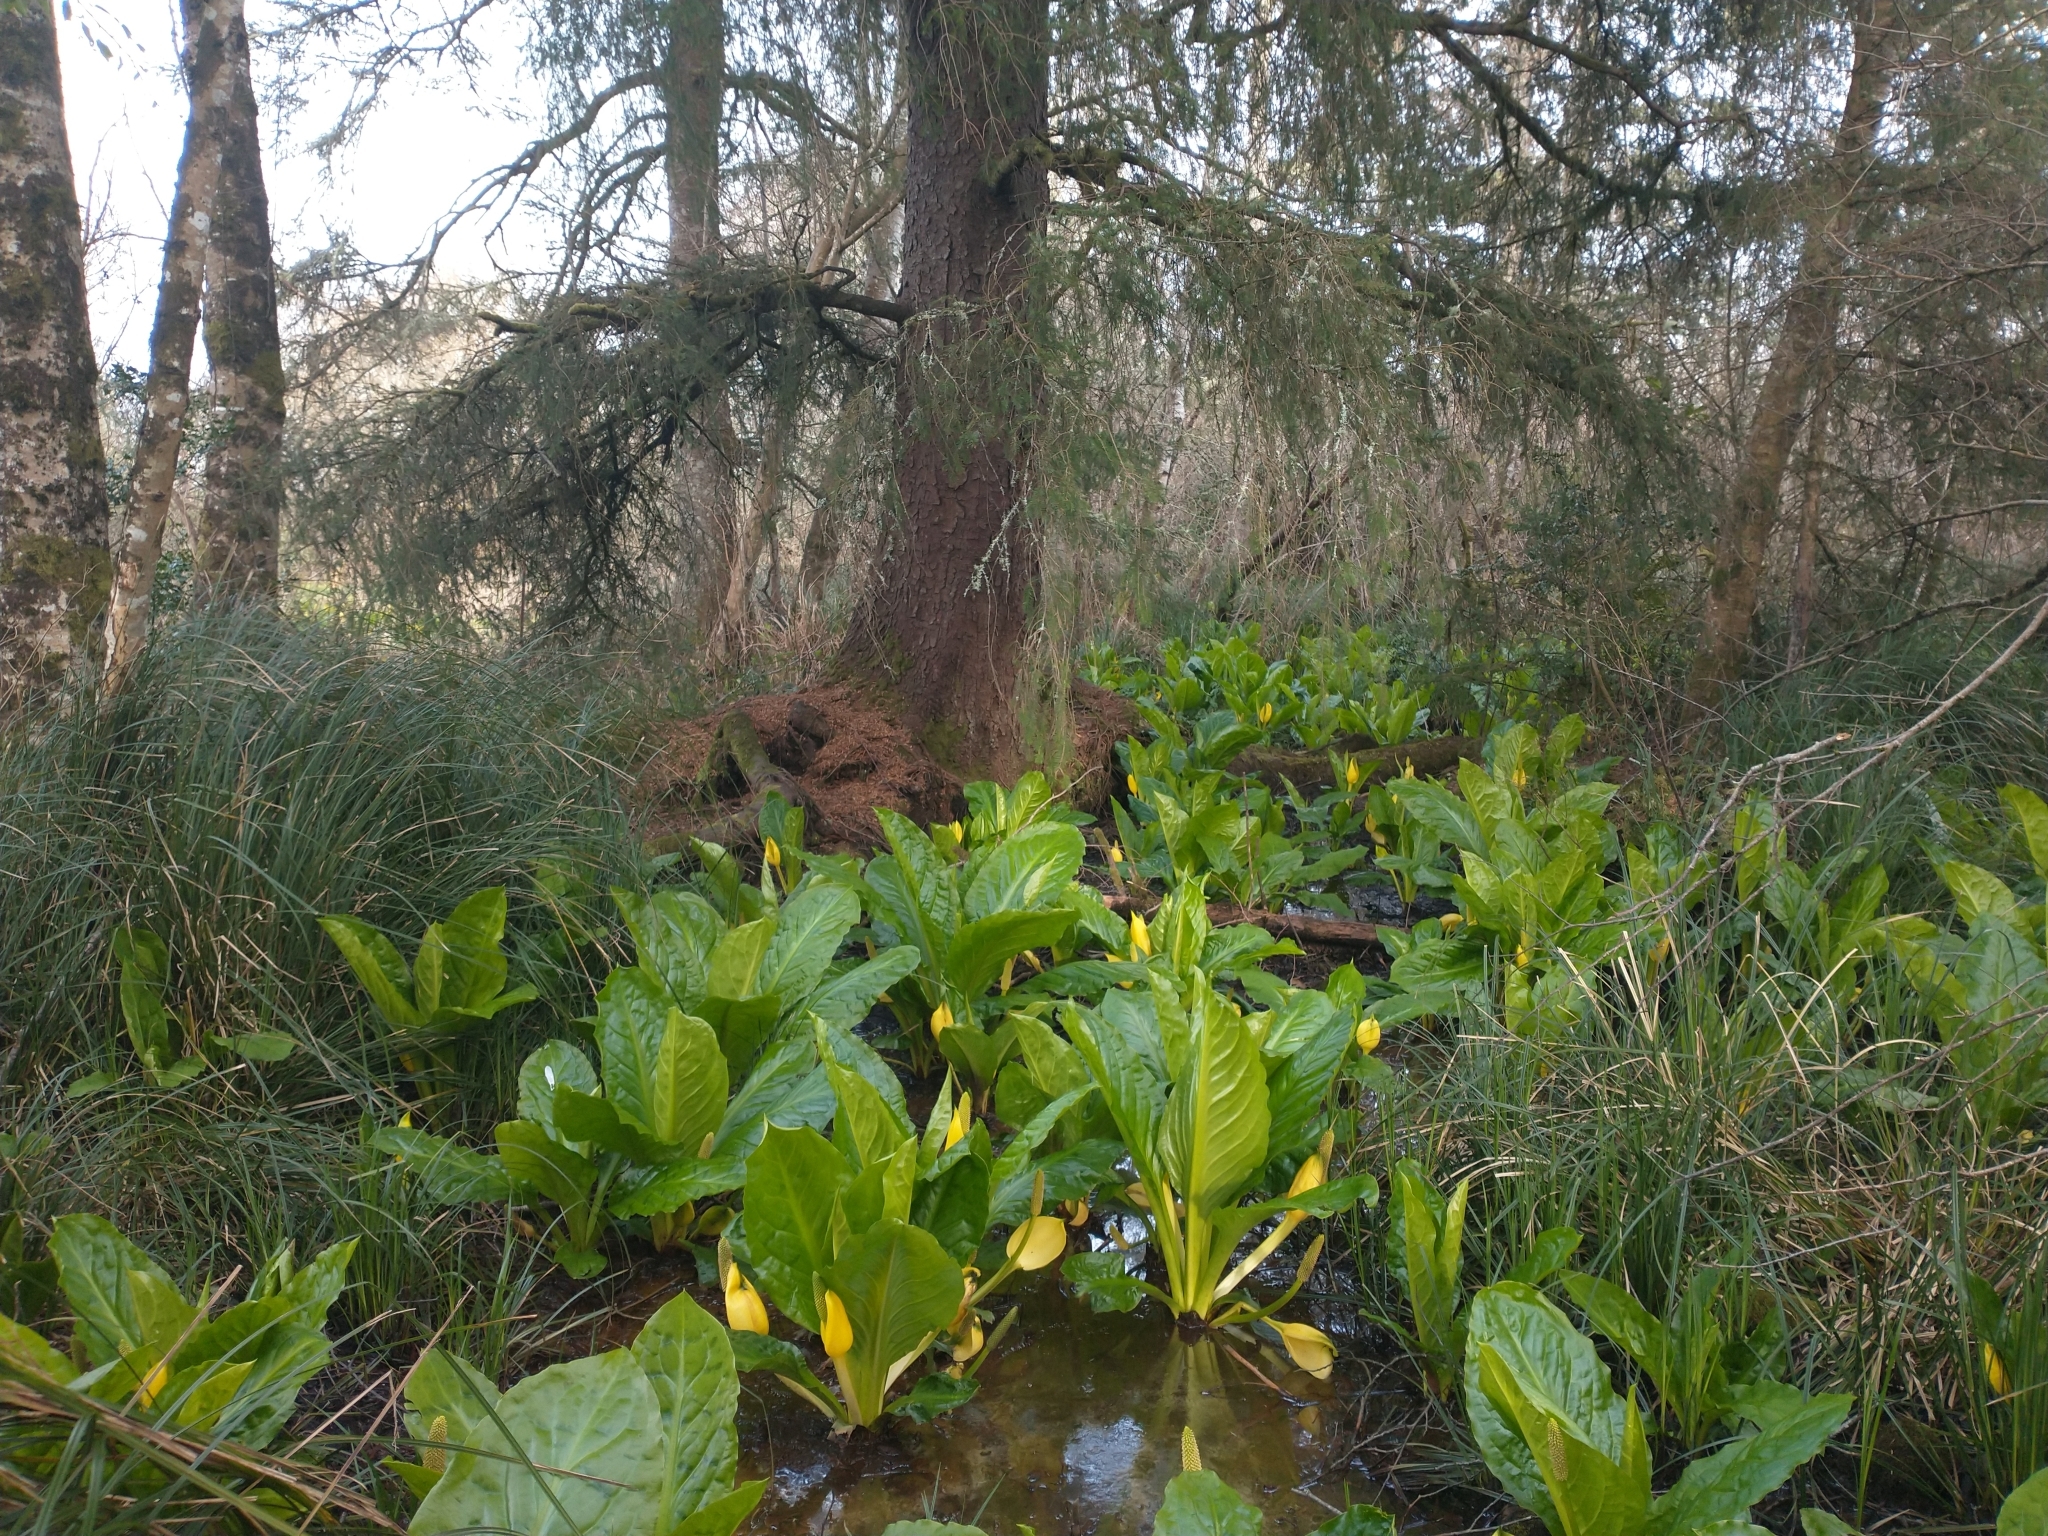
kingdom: Plantae
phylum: Tracheophyta
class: Pinopsida
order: Pinales
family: Pinaceae
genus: Picea
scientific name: Picea sitchensis
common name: Sitka spruce
